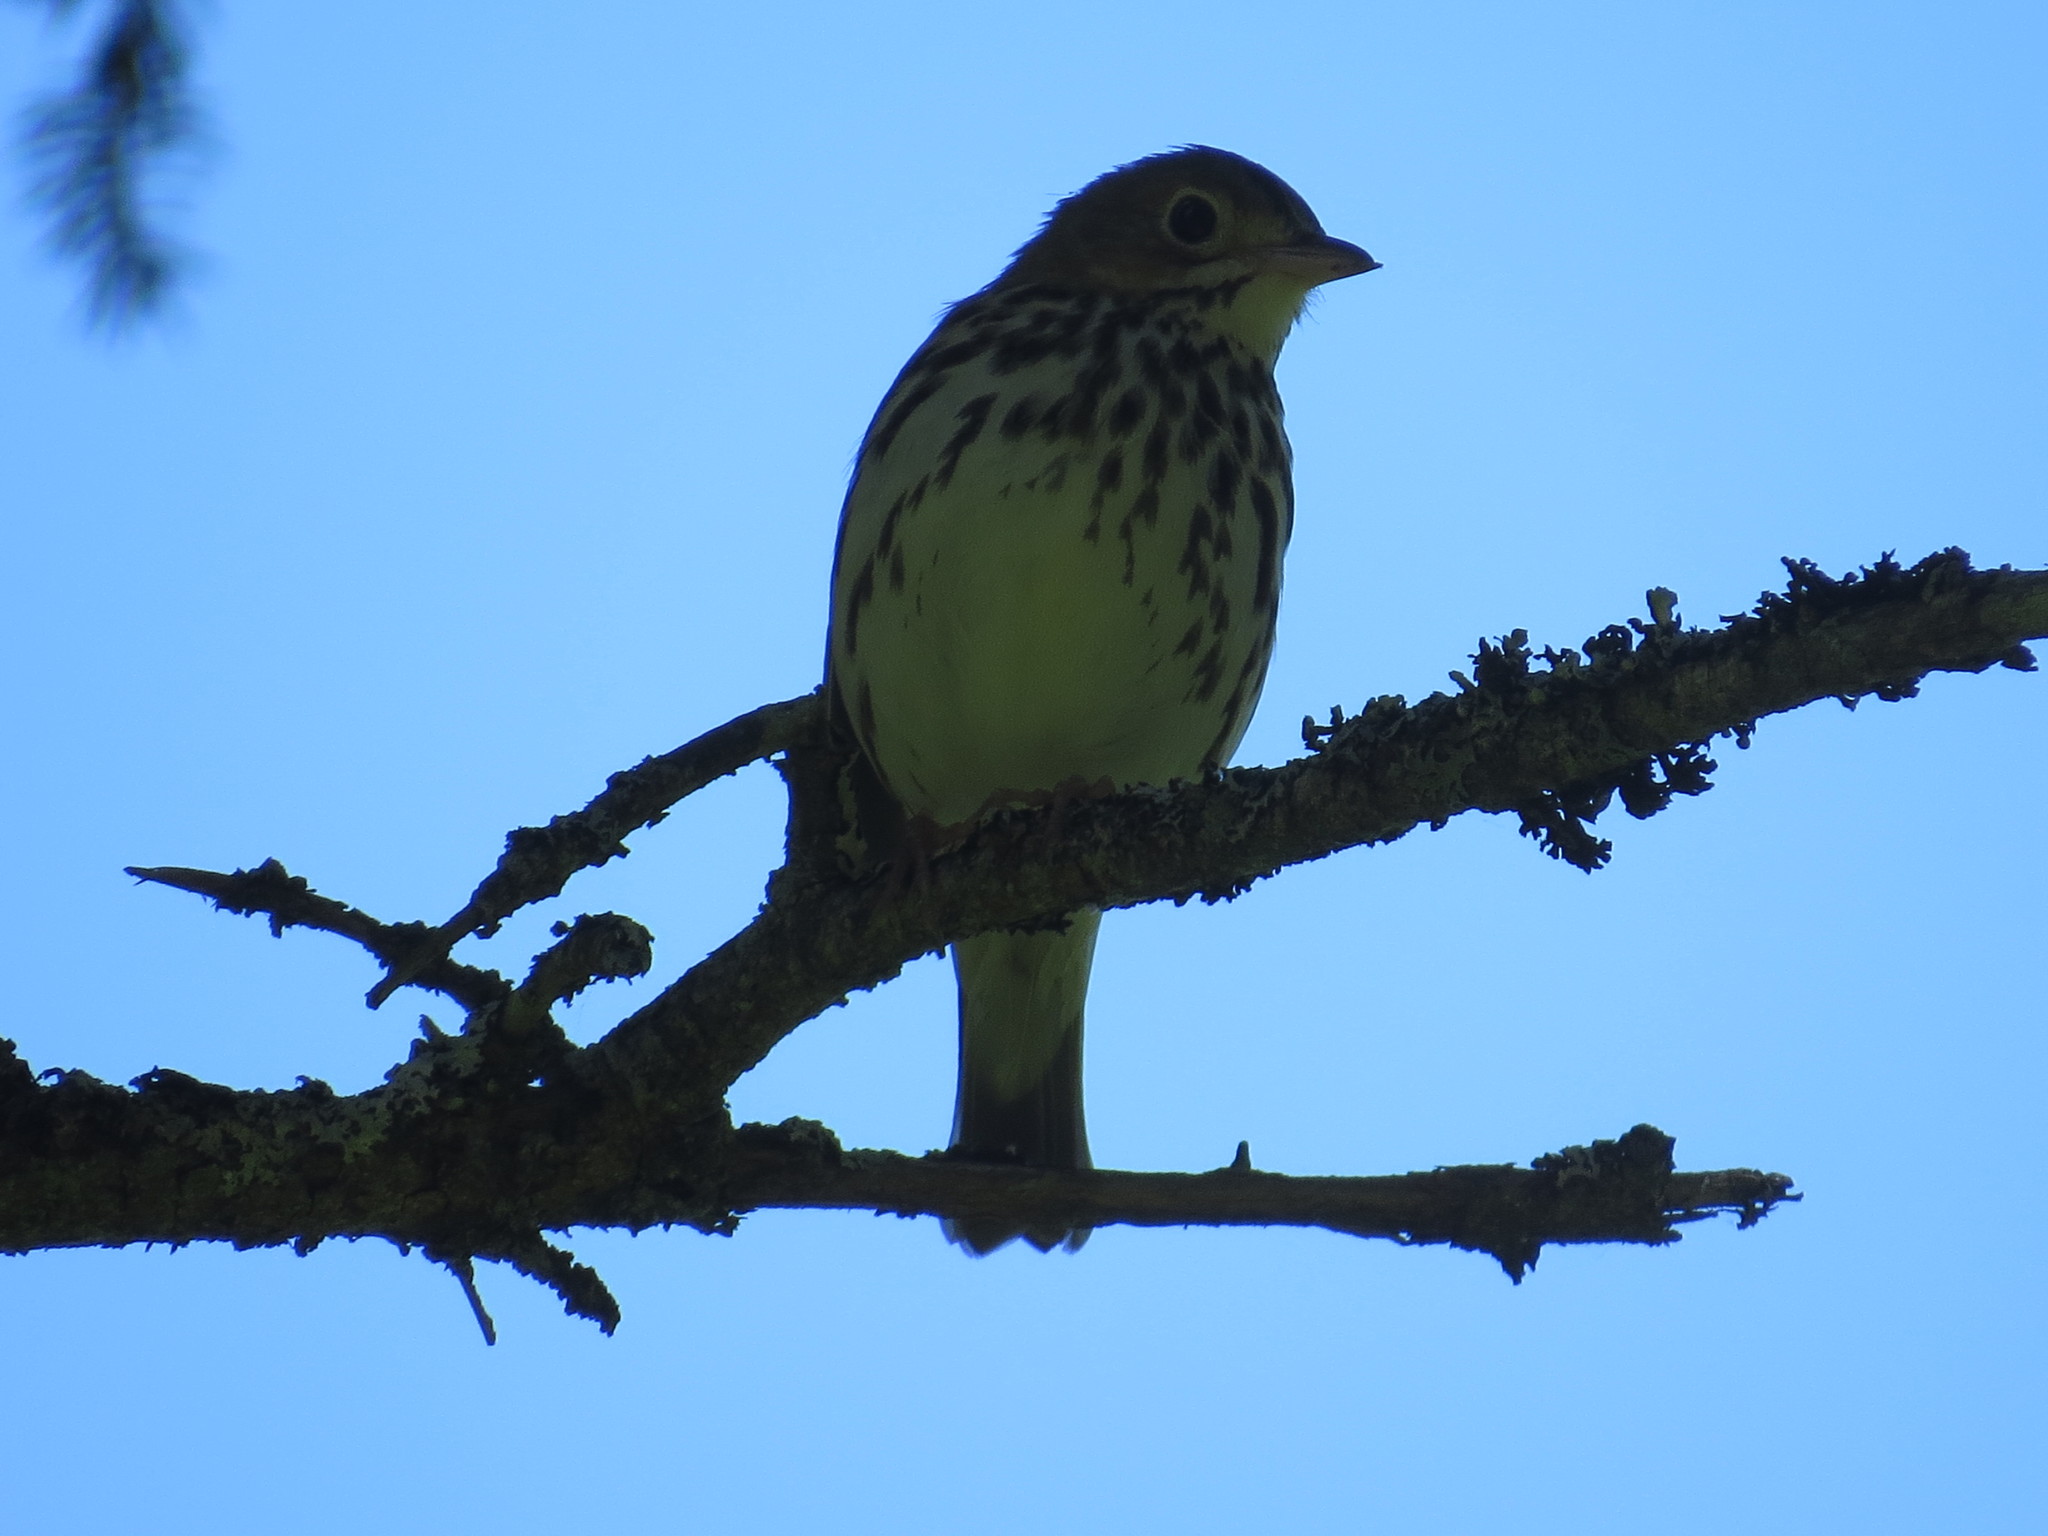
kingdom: Animalia
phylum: Chordata
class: Aves
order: Passeriformes
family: Parulidae
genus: Seiurus
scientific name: Seiurus aurocapilla
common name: Ovenbird
